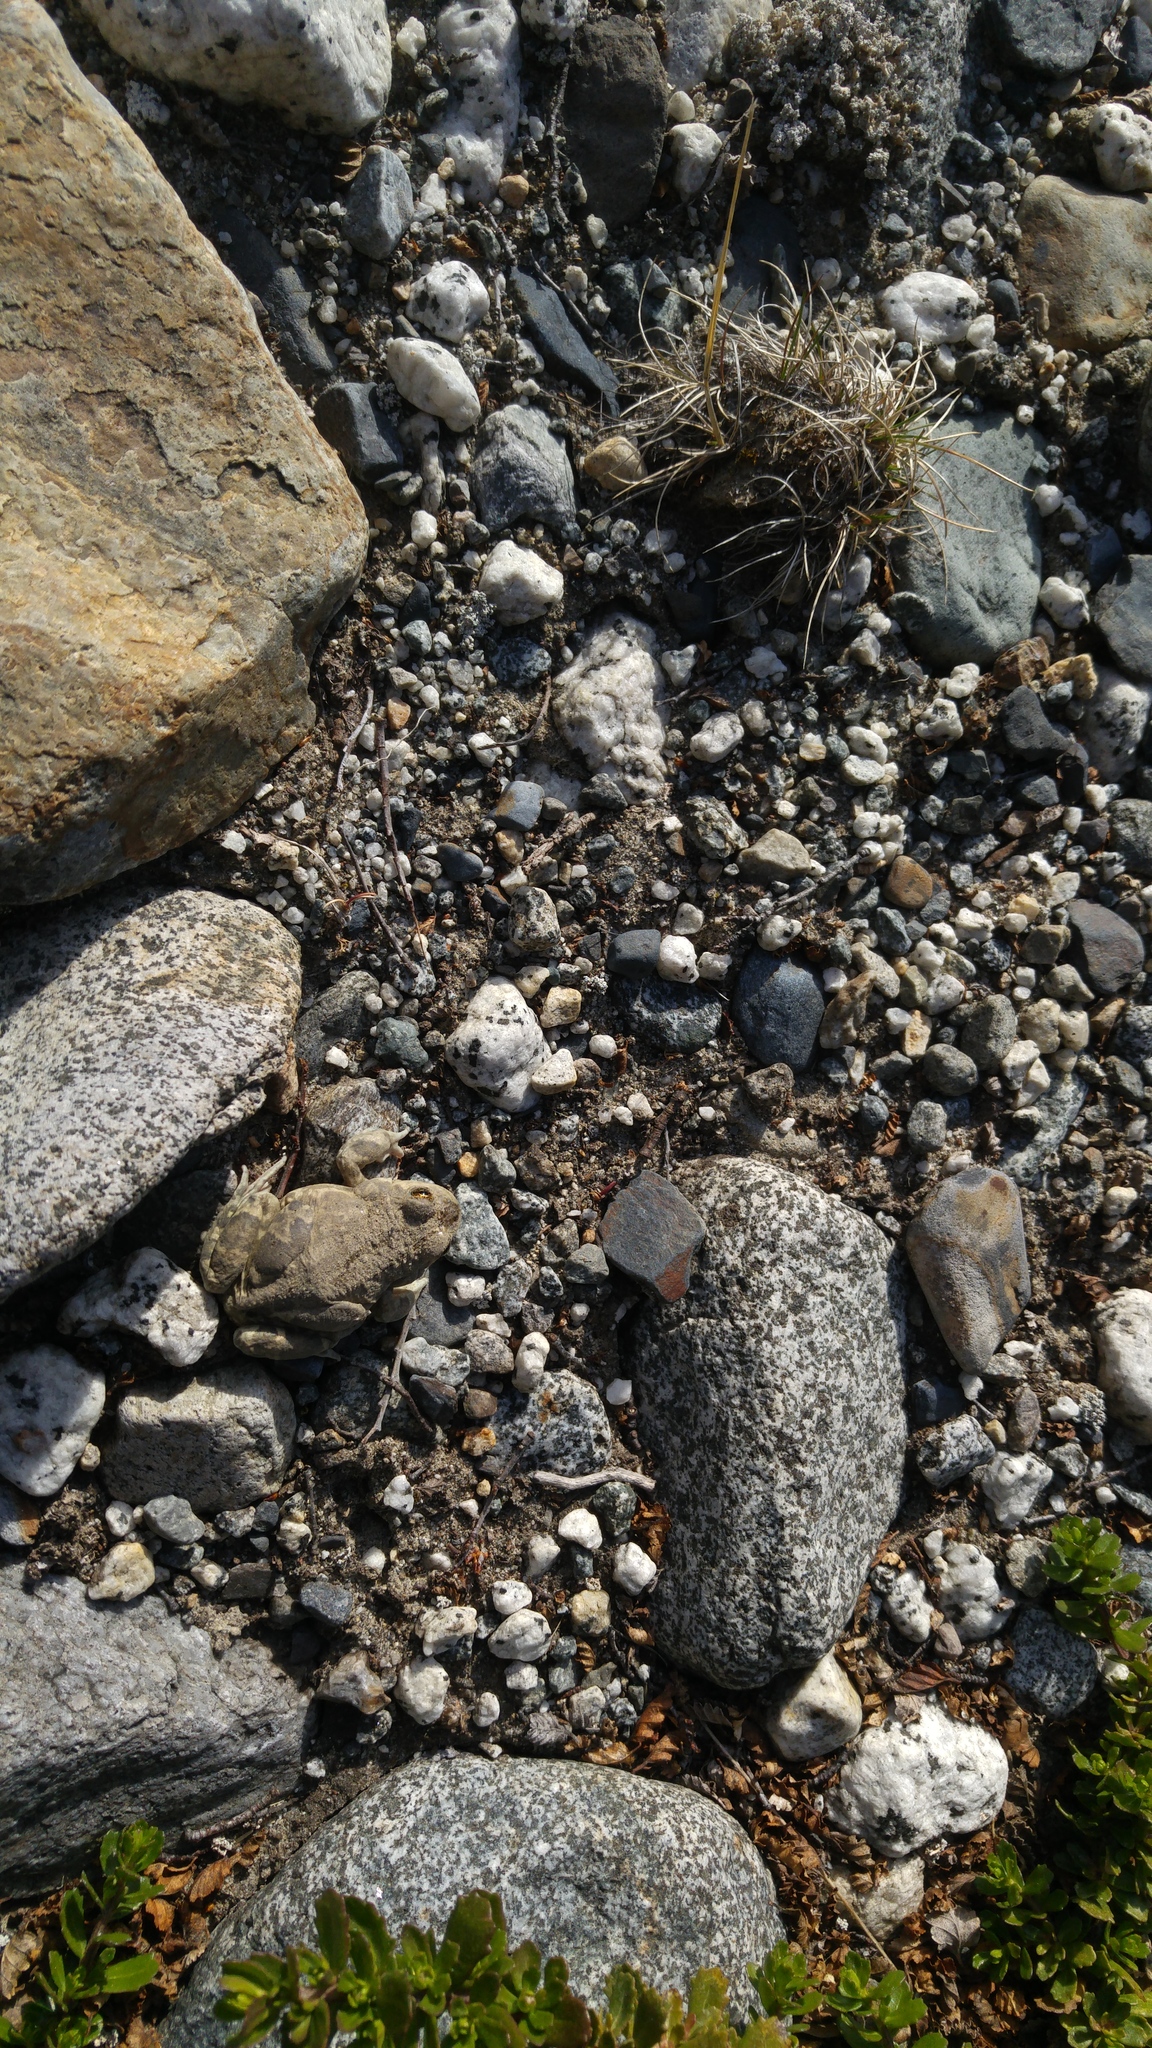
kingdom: Animalia
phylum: Chordata
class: Amphibia
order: Anura
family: Leptodactylidae
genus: Pleurodema
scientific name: Pleurodema bufoninum
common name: Large four-eyed frog
